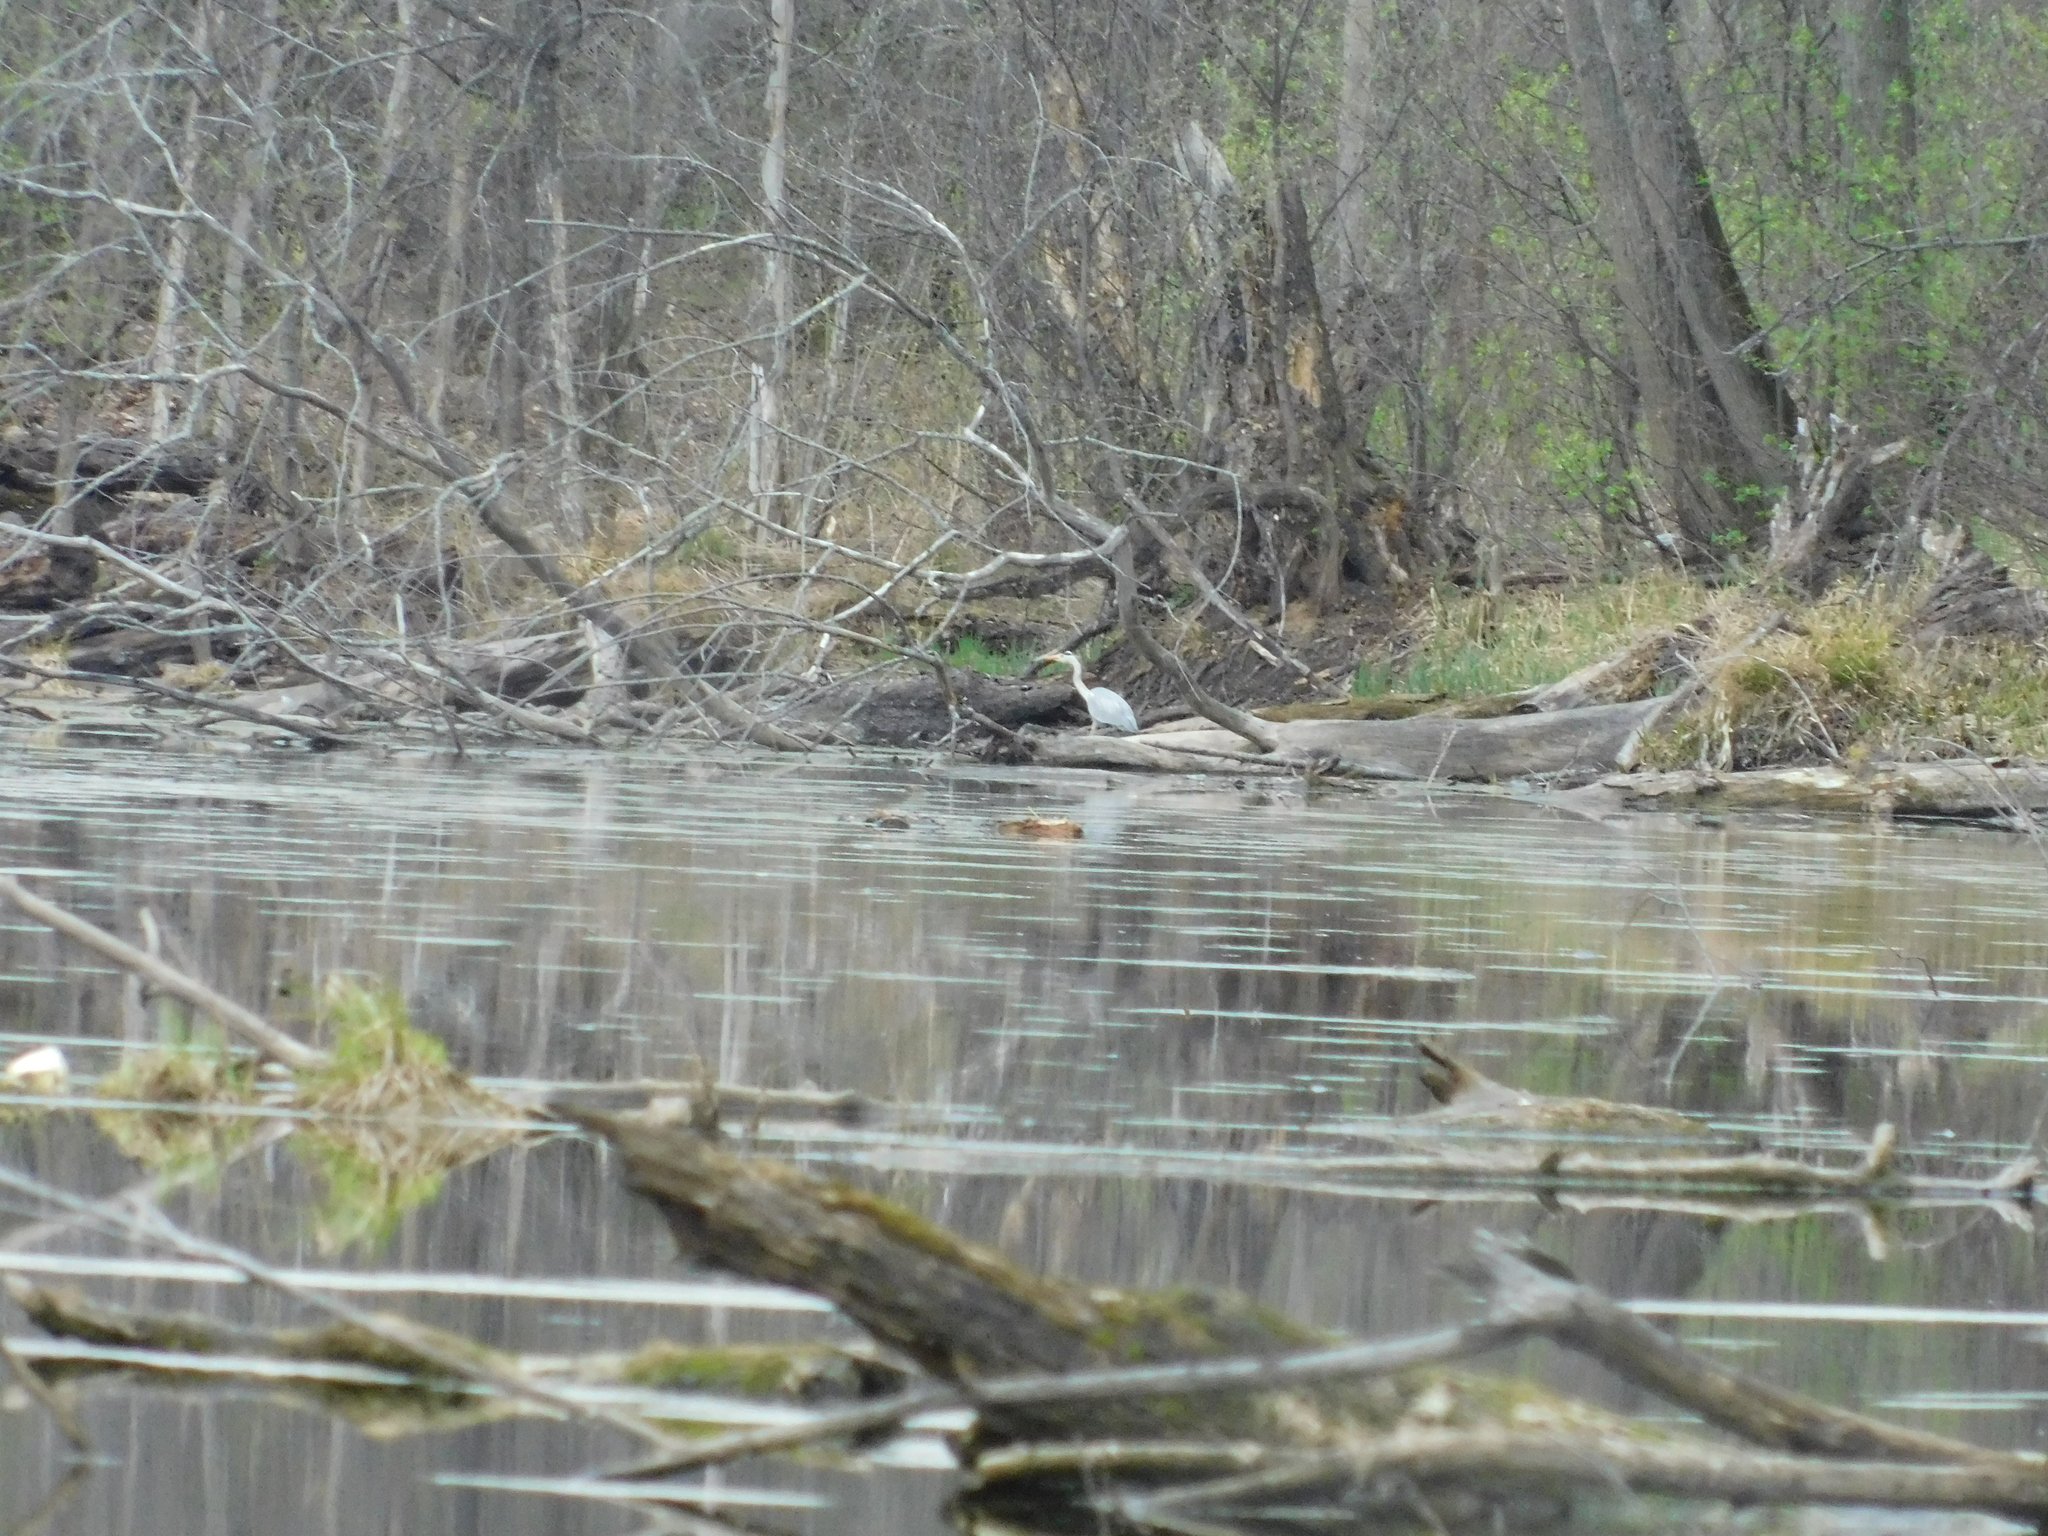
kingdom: Animalia
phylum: Chordata
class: Aves
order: Pelecaniformes
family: Ardeidae
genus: Ardea
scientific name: Ardea cinerea
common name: Grey heron
